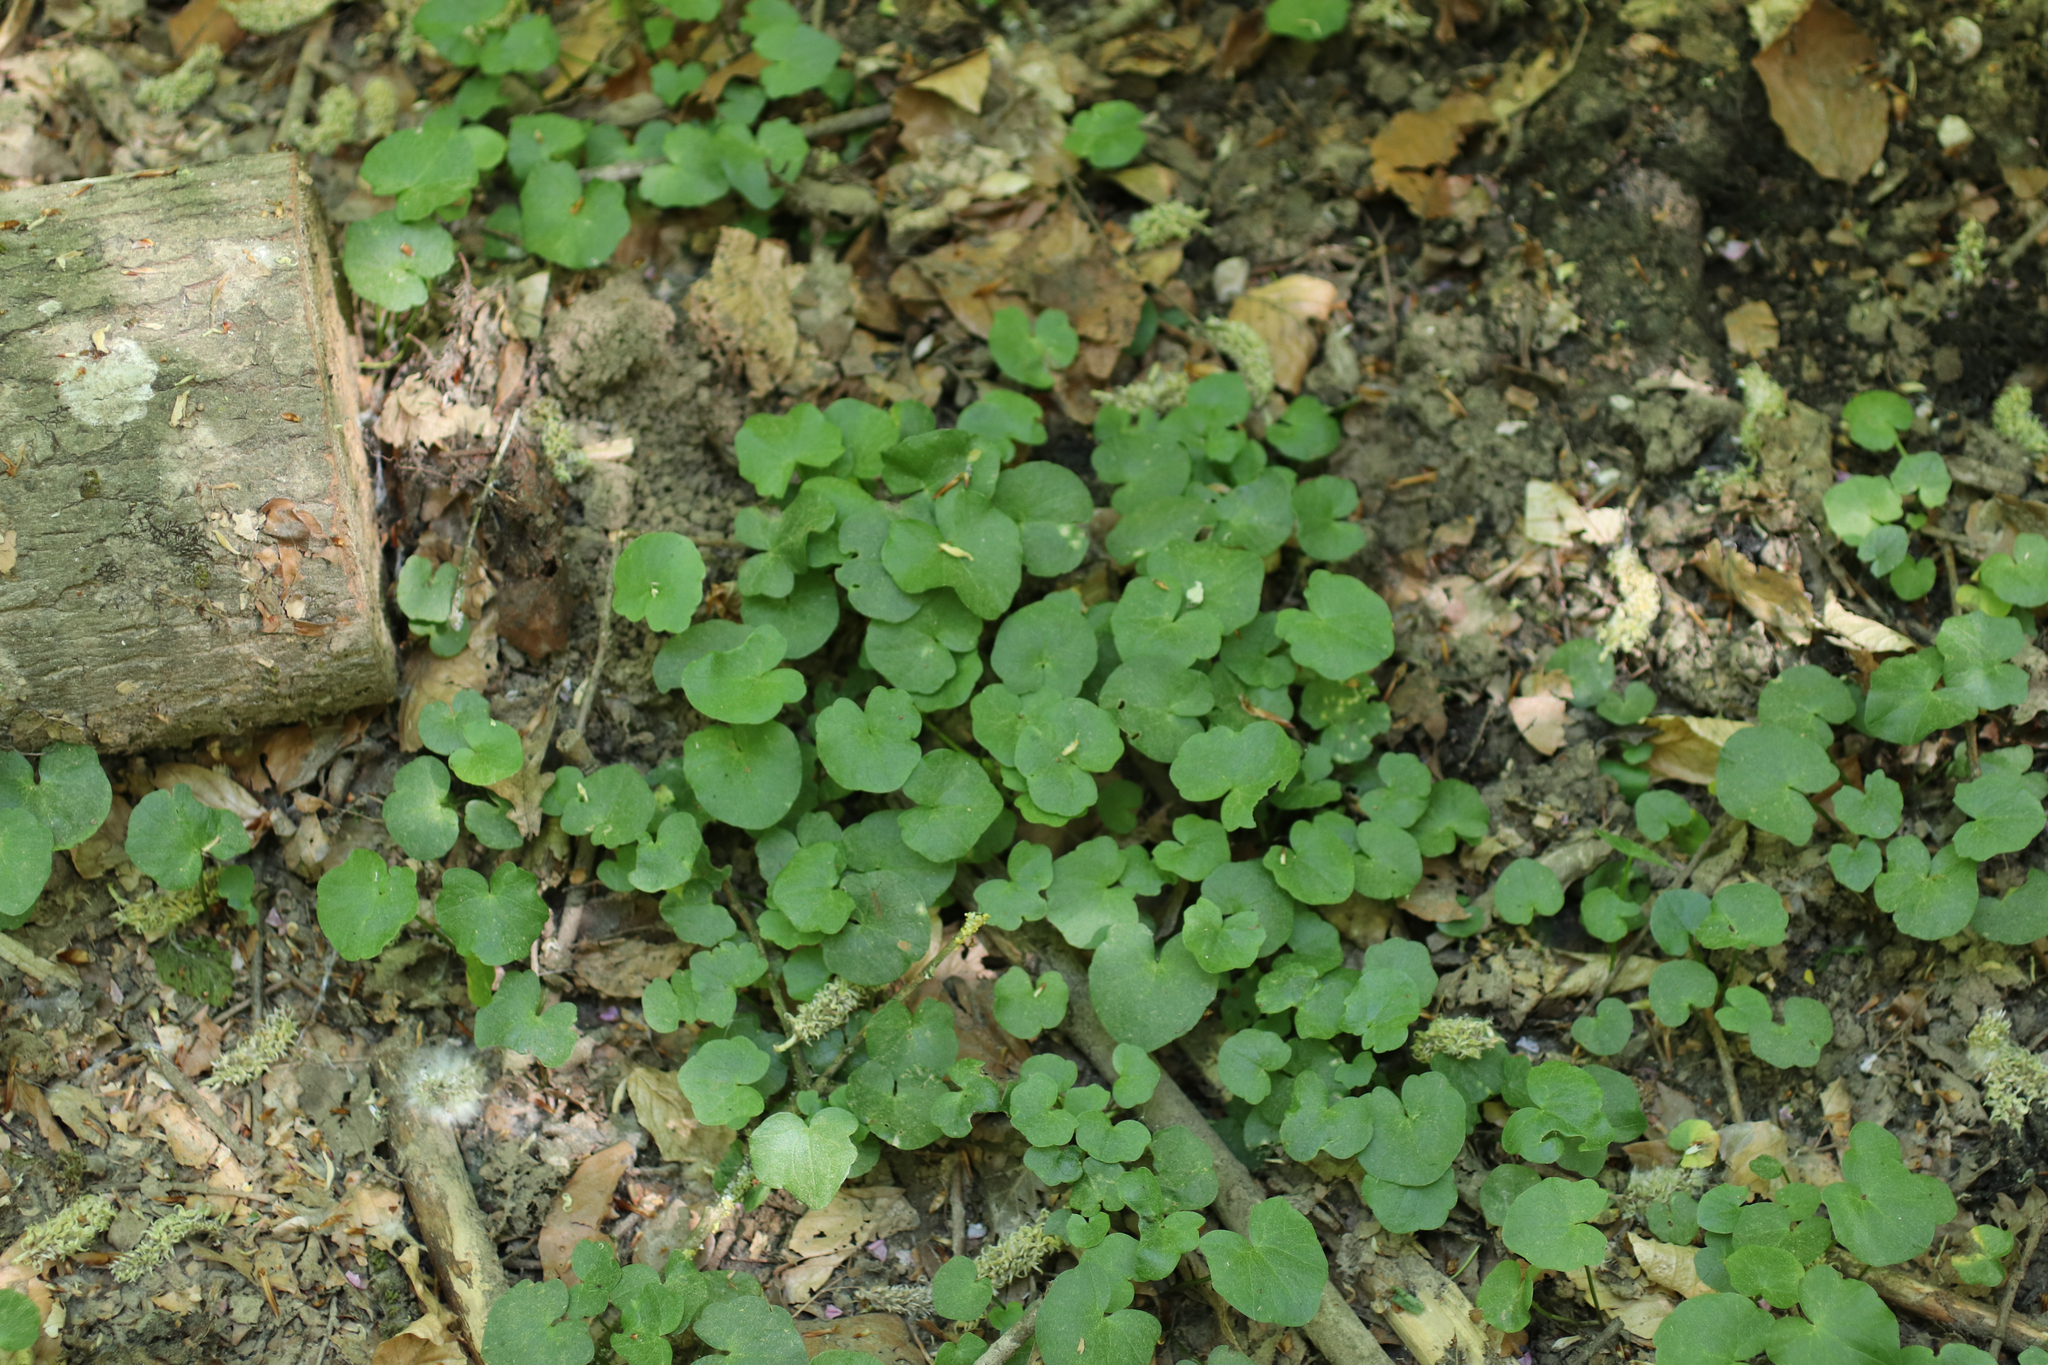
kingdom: Plantae
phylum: Tracheophyta
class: Magnoliopsida
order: Ranunculales
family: Ranunculaceae
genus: Ficaria
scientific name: Ficaria verna
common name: Lesser celandine
